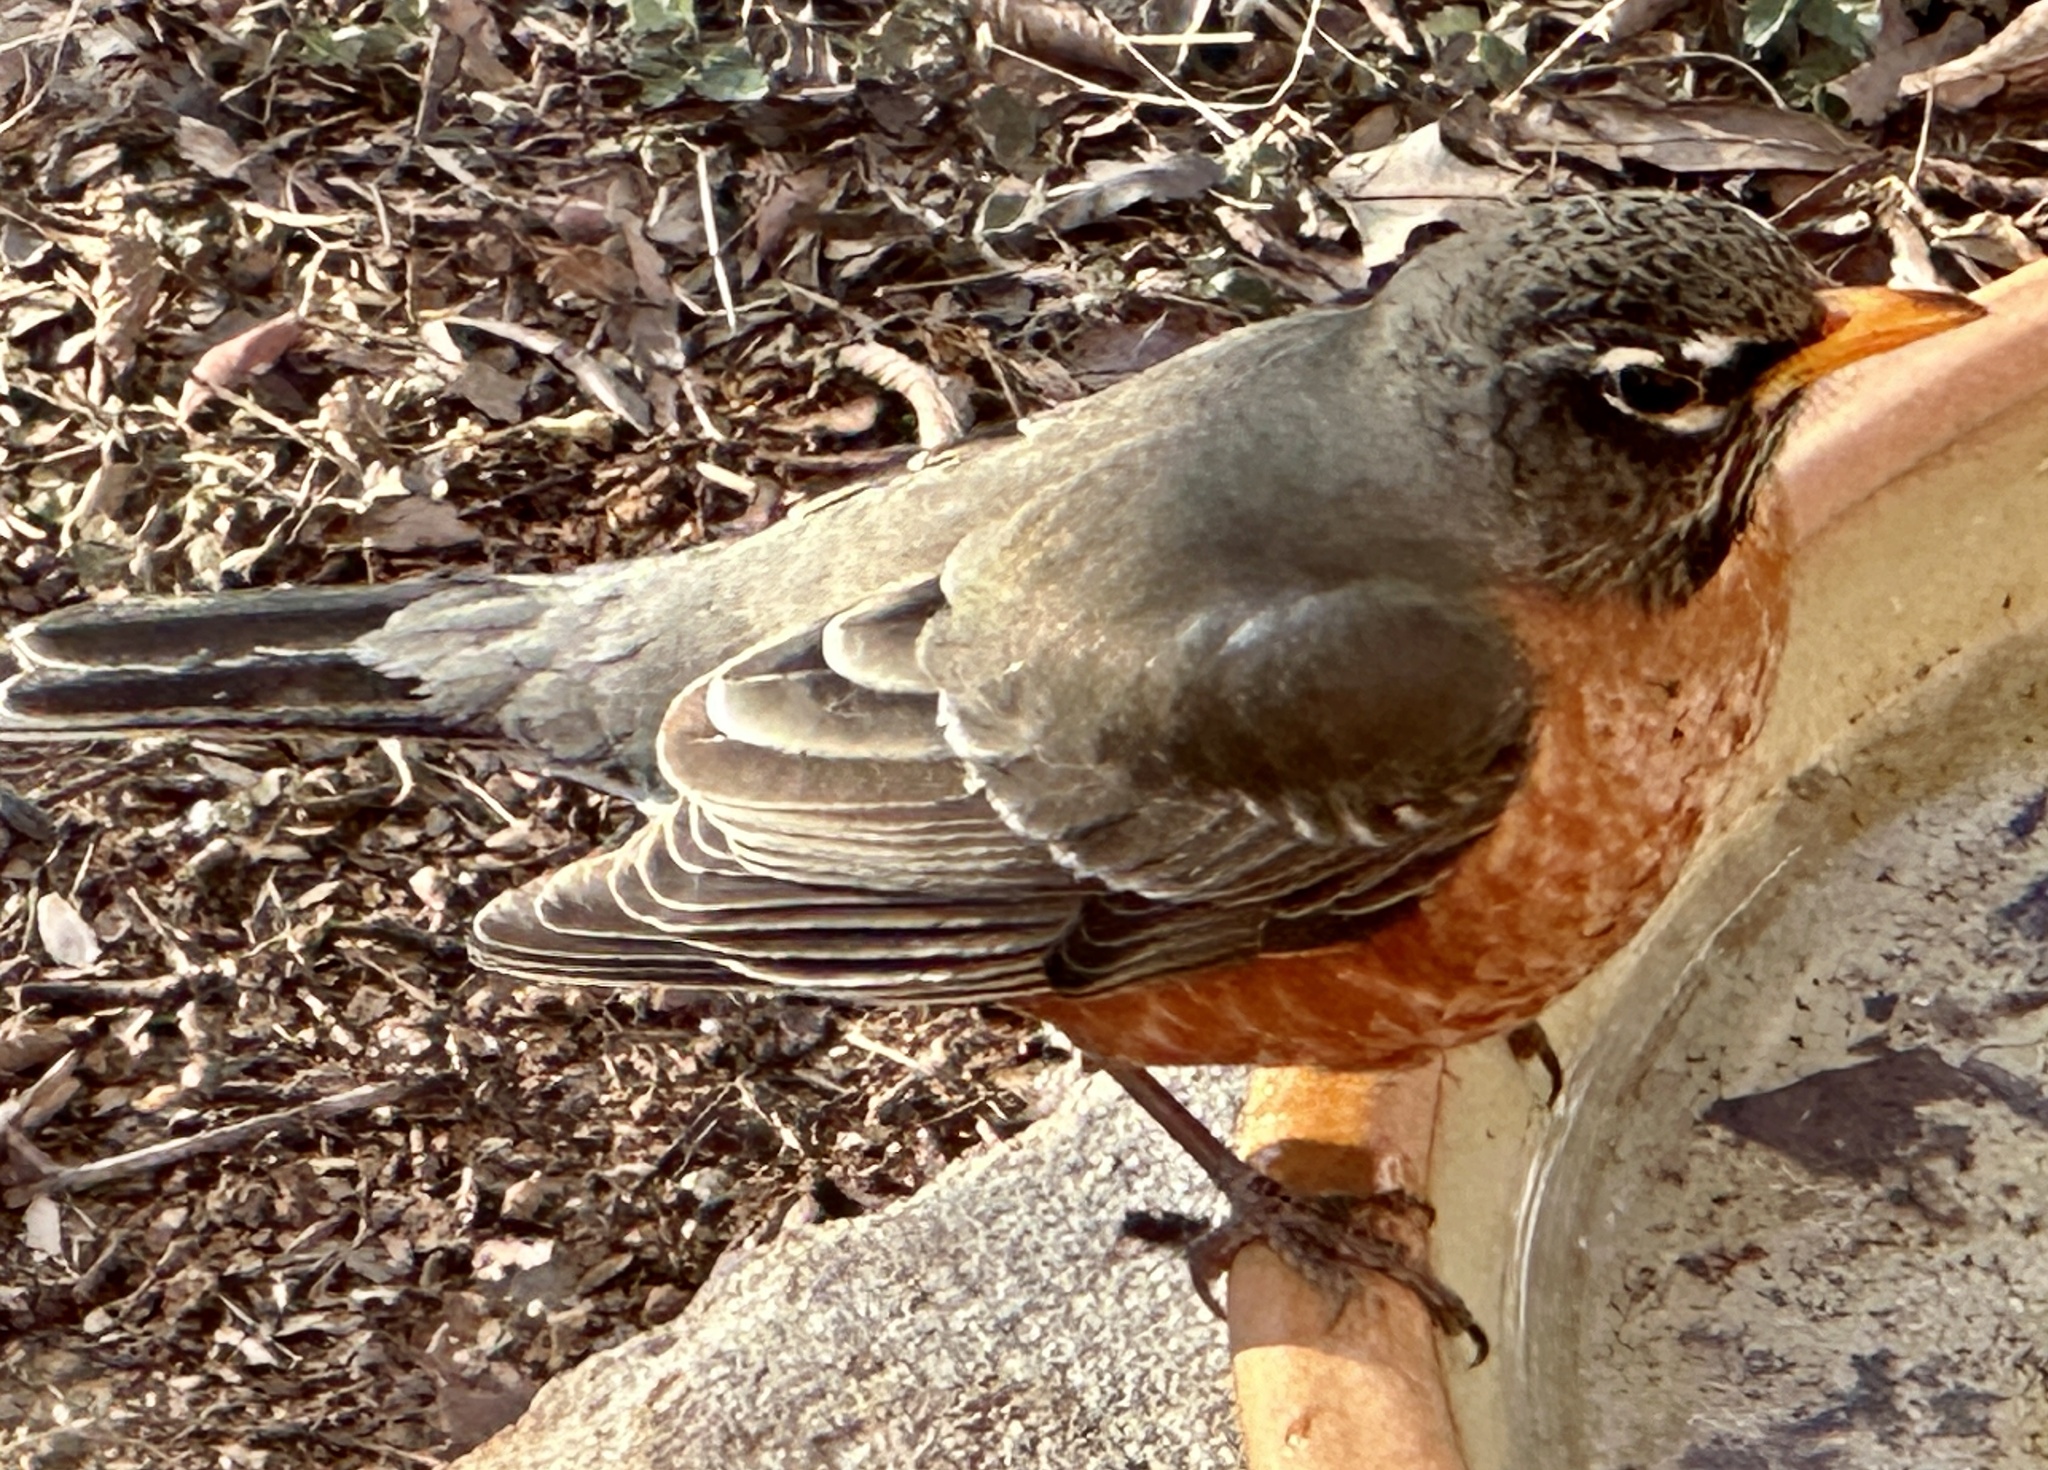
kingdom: Animalia
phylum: Chordata
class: Aves
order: Passeriformes
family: Turdidae
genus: Turdus
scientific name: Turdus migratorius
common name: American robin
